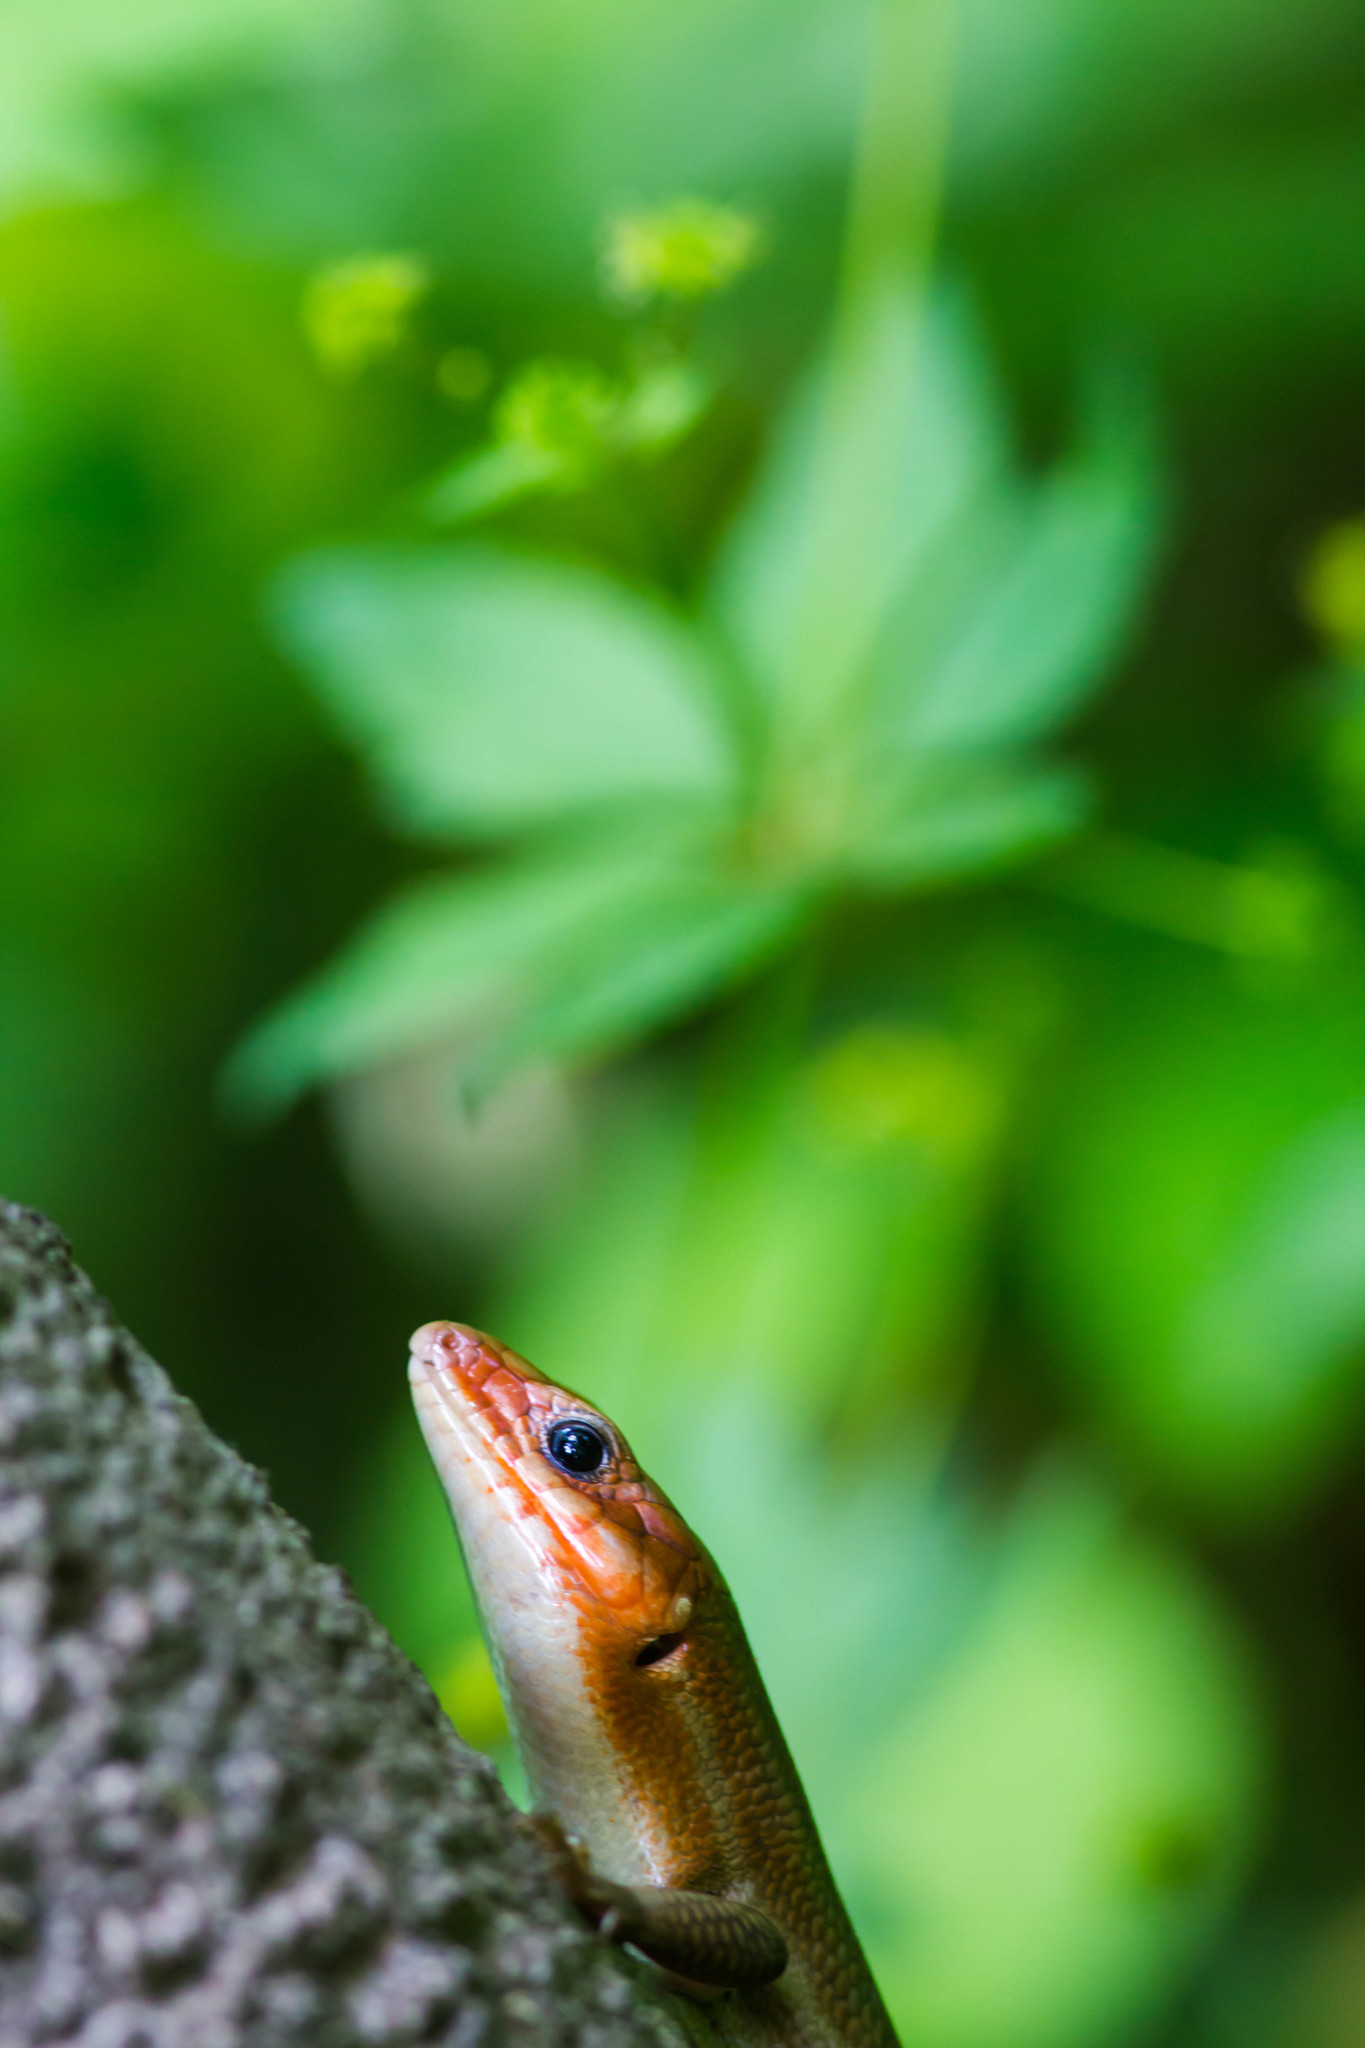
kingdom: Animalia
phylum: Chordata
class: Squamata
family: Scincidae
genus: Plestiodon
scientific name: Plestiodon laticeps
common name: Broadhead skink
